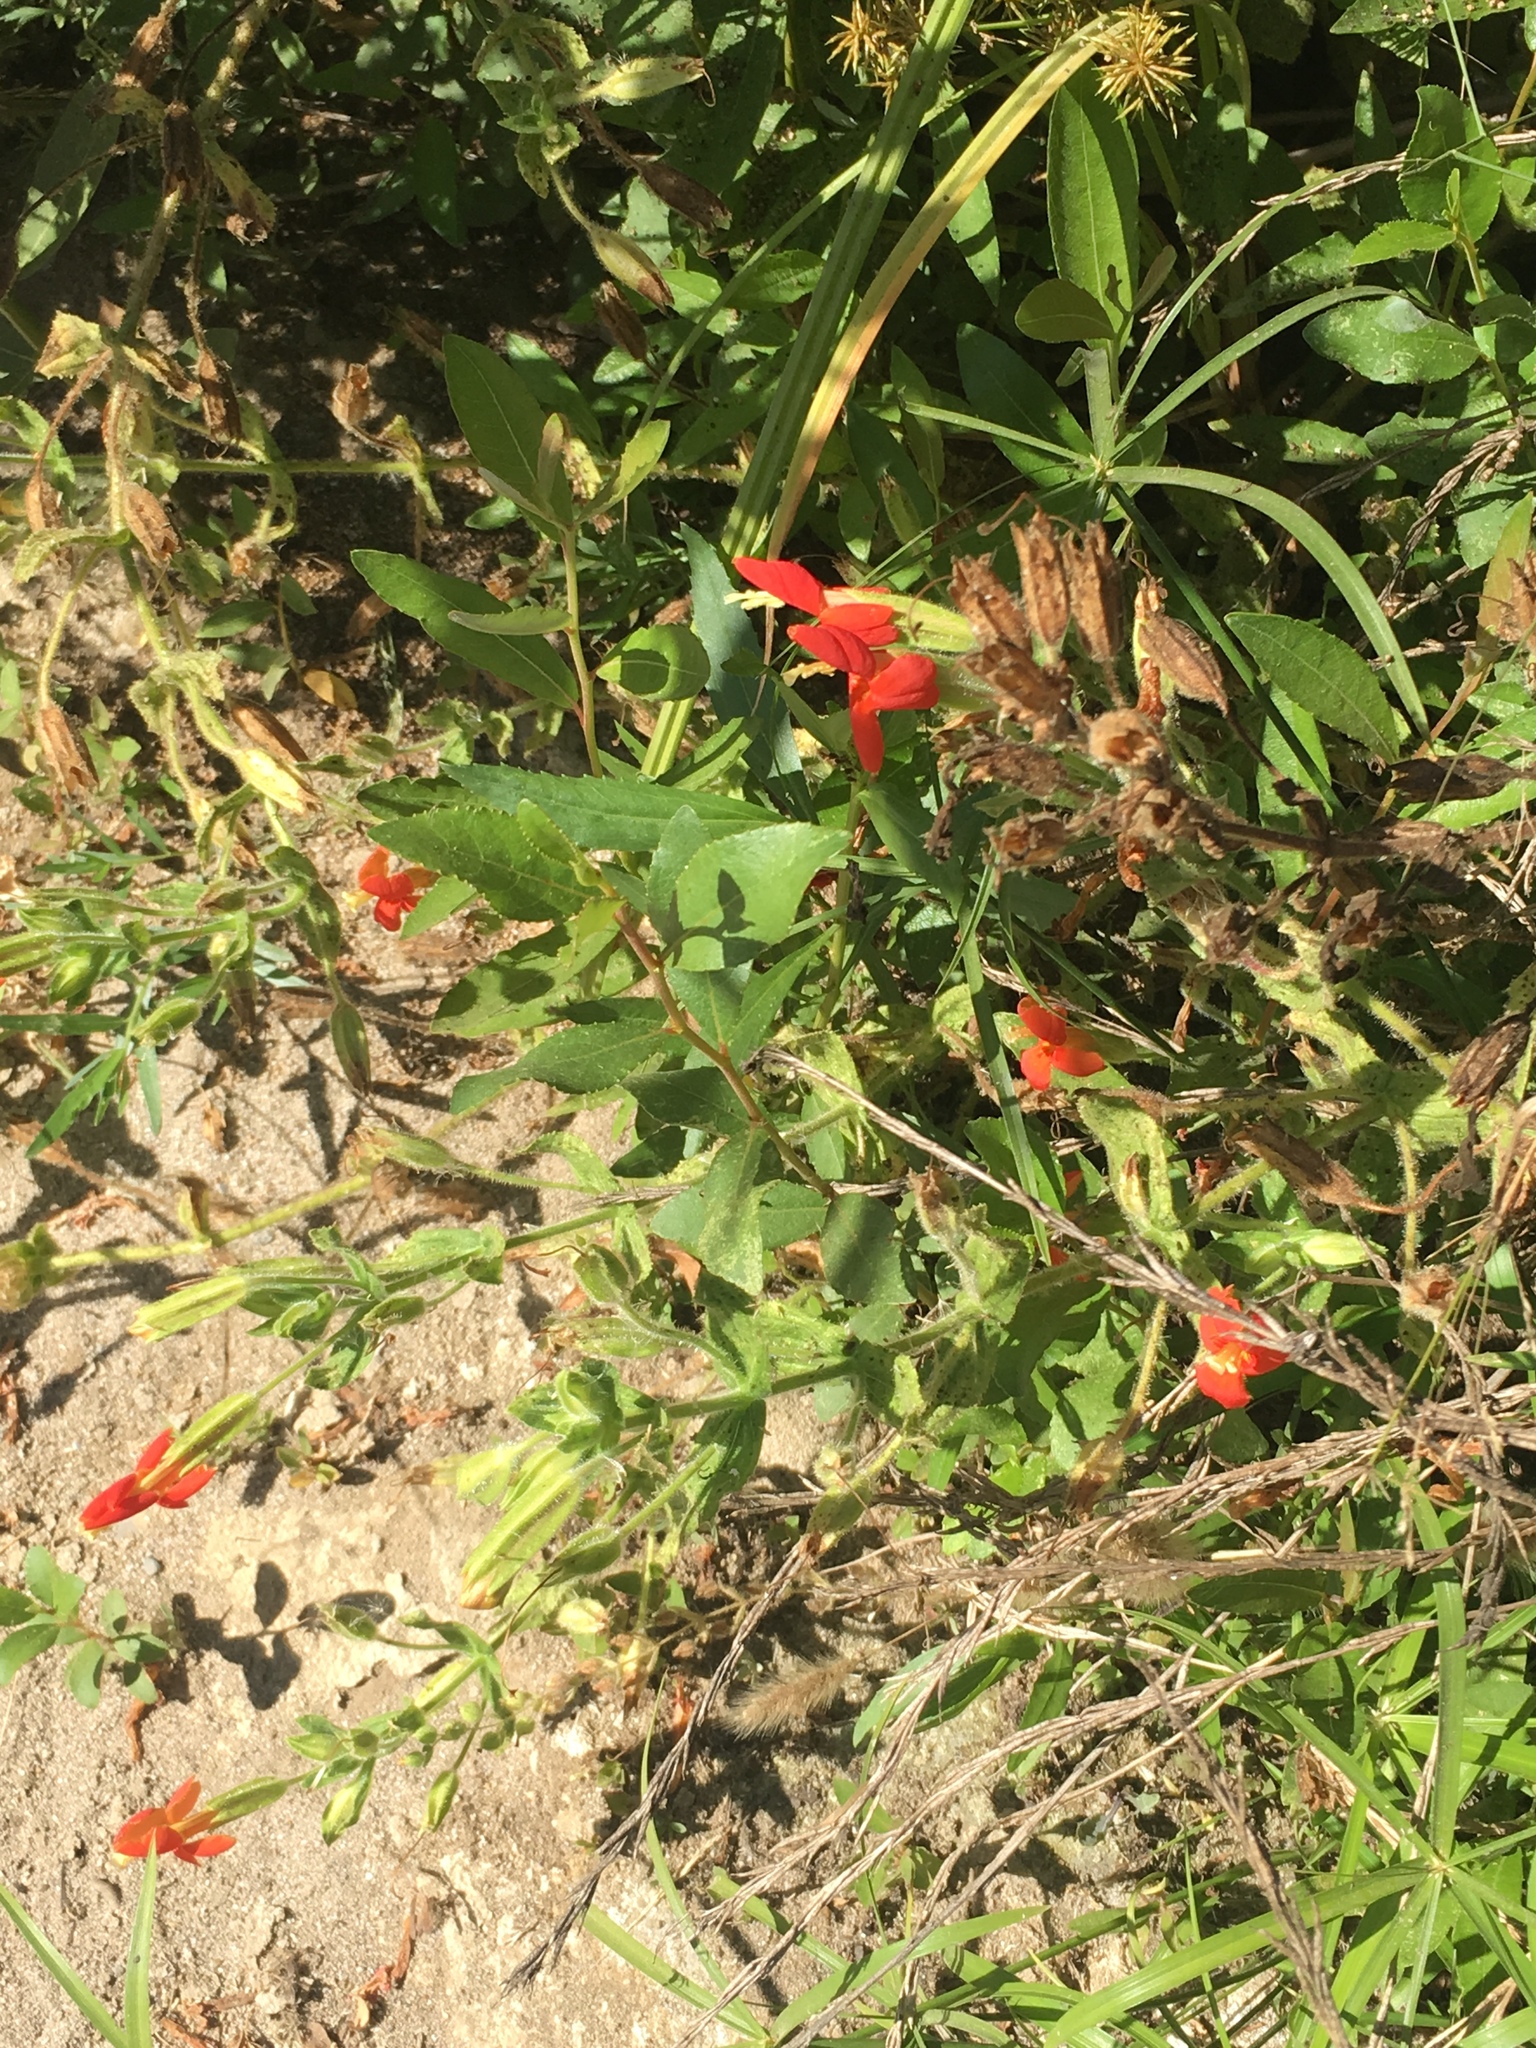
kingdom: Plantae
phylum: Tracheophyta
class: Magnoliopsida
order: Lamiales
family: Phrymaceae
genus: Erythranthe
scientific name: Erythranthe cardinalis
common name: Scarlet monkey-flower
